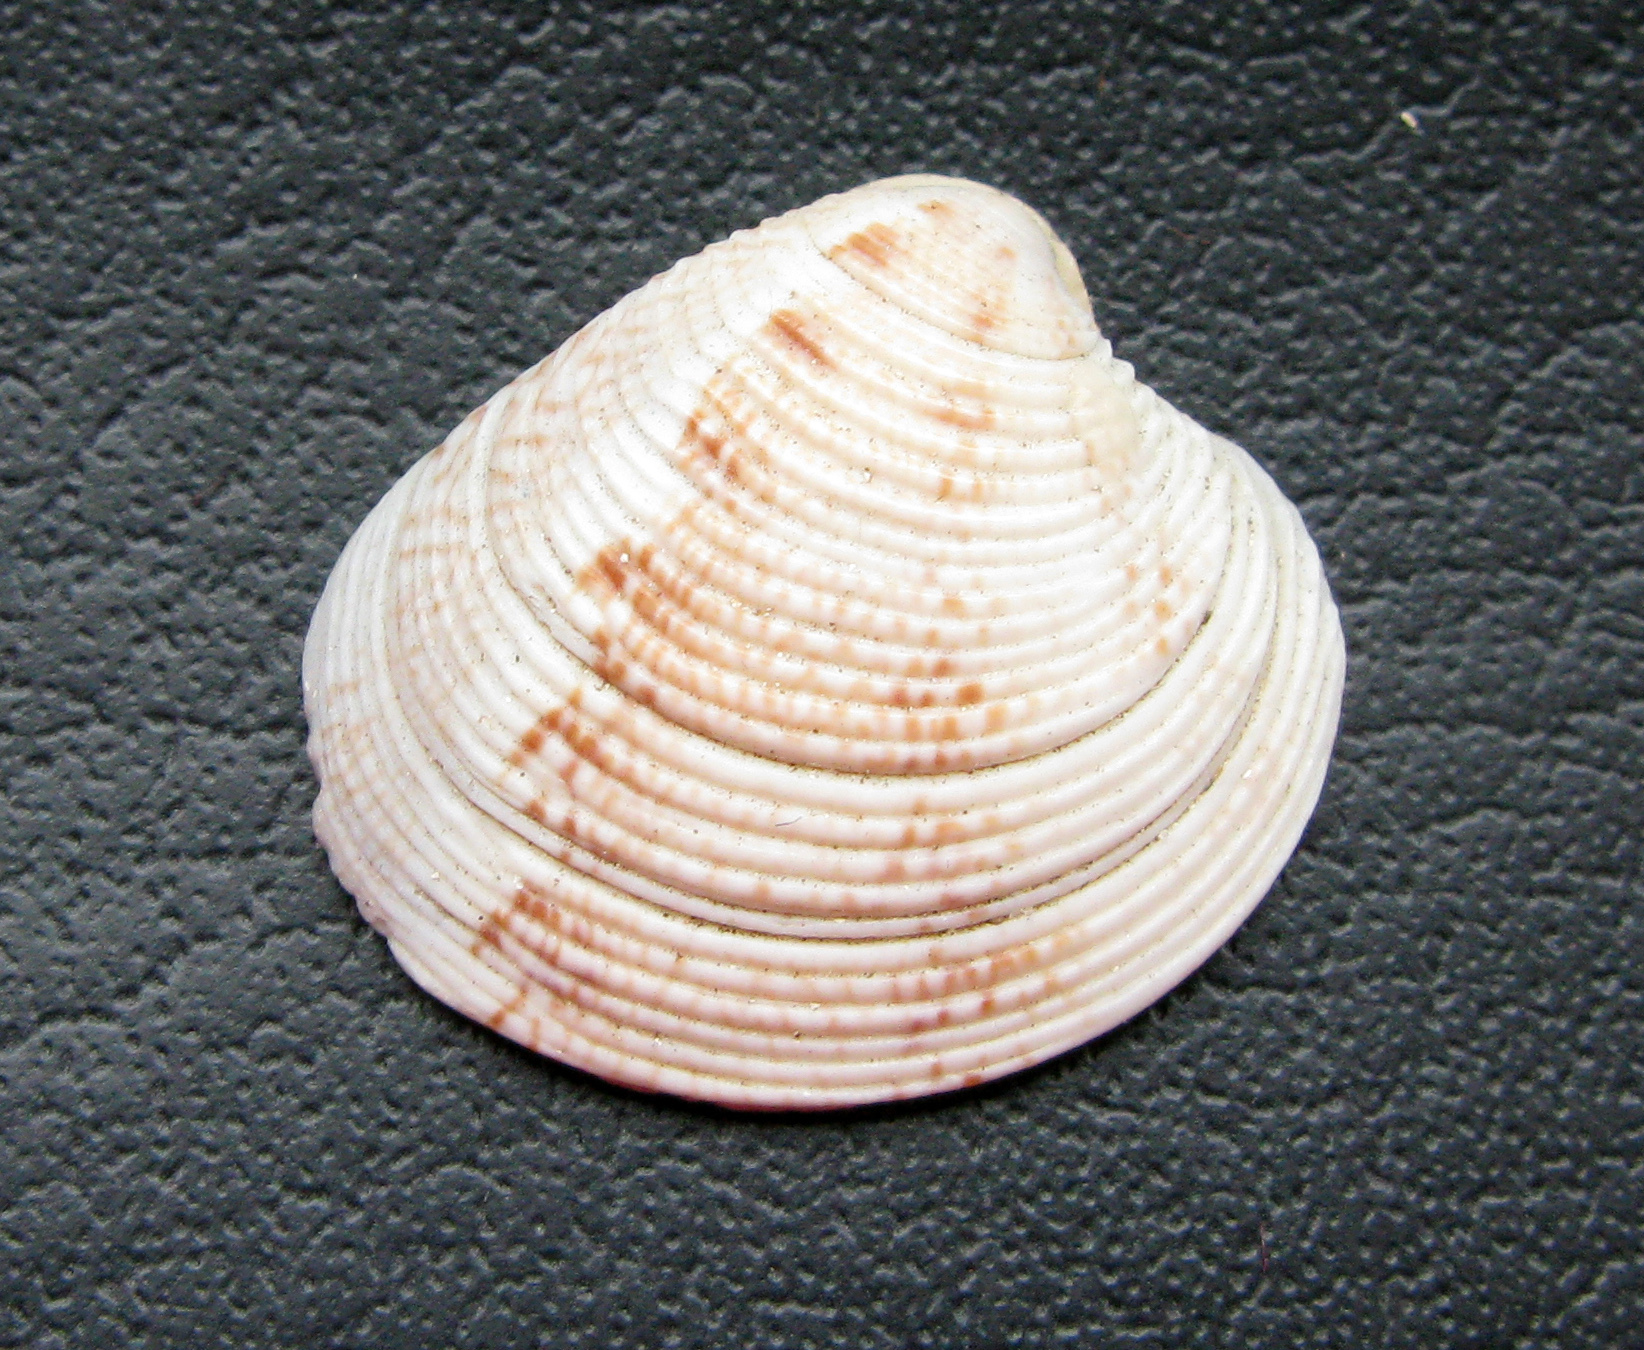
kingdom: Animalia
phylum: Mollusca
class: Bivalvia
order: Venerida
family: Veneridae
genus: Chamelea
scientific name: Chamelea gallina
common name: Chicken venus
